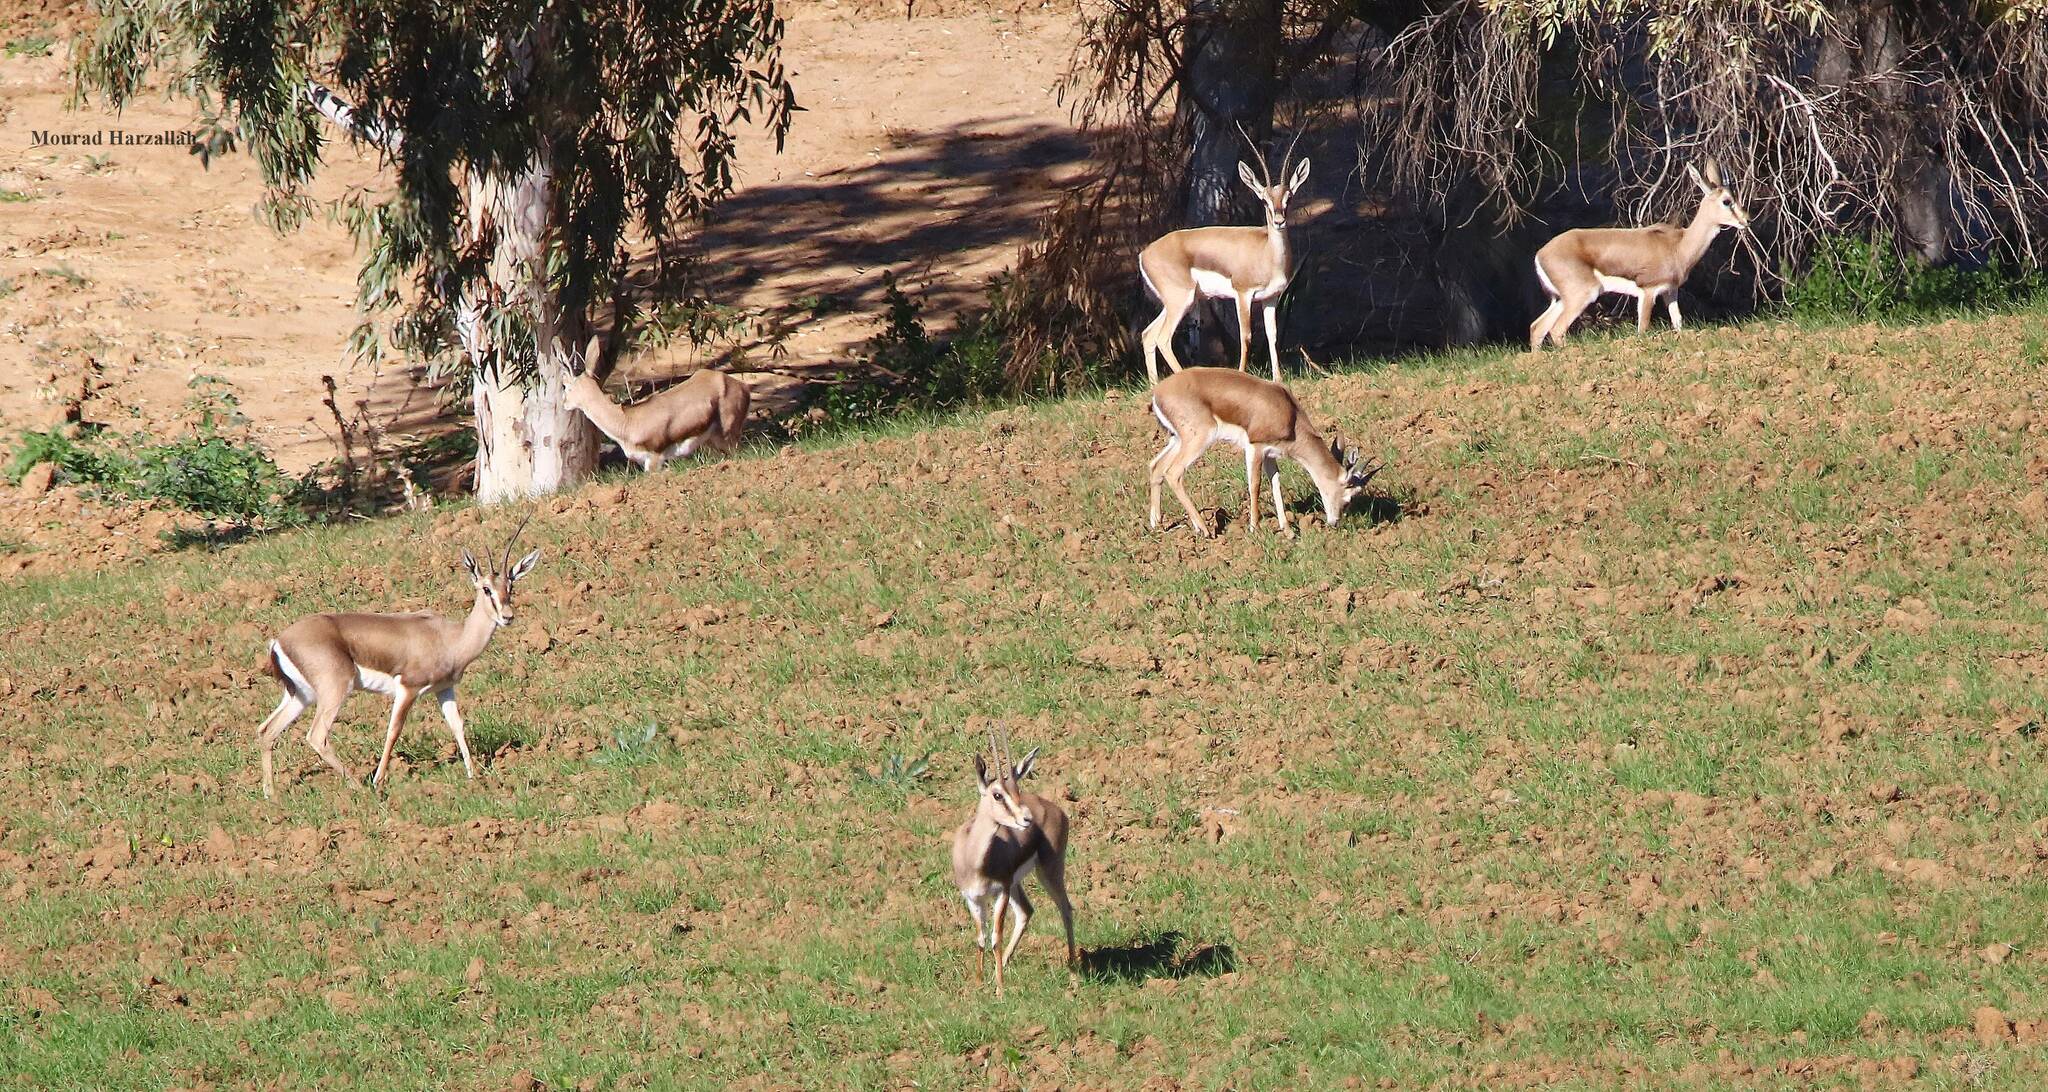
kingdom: Animalia
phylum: Chordata
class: Mammalia
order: Artiodactyla
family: Bovidae
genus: Gazella
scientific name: Gazella cuvieri
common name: Cuvier's gazelle
